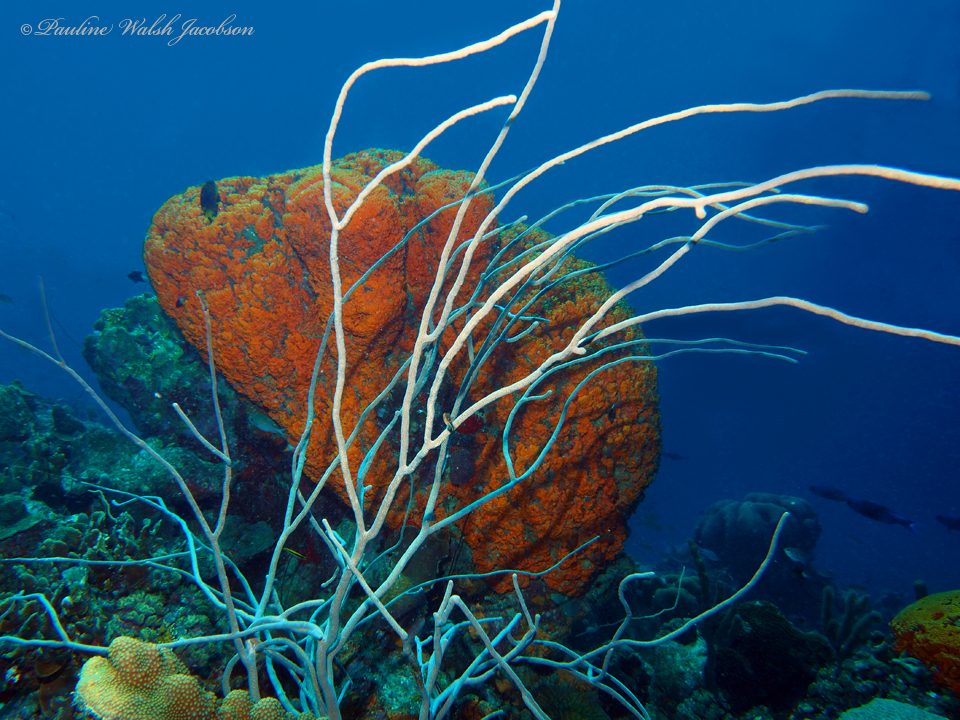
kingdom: Animalia
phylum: Porifera
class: Demospongiae
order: Agelasida
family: Agelasidae
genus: Agelas
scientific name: Agelas clathrodes
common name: Orange elephant ear sponge
